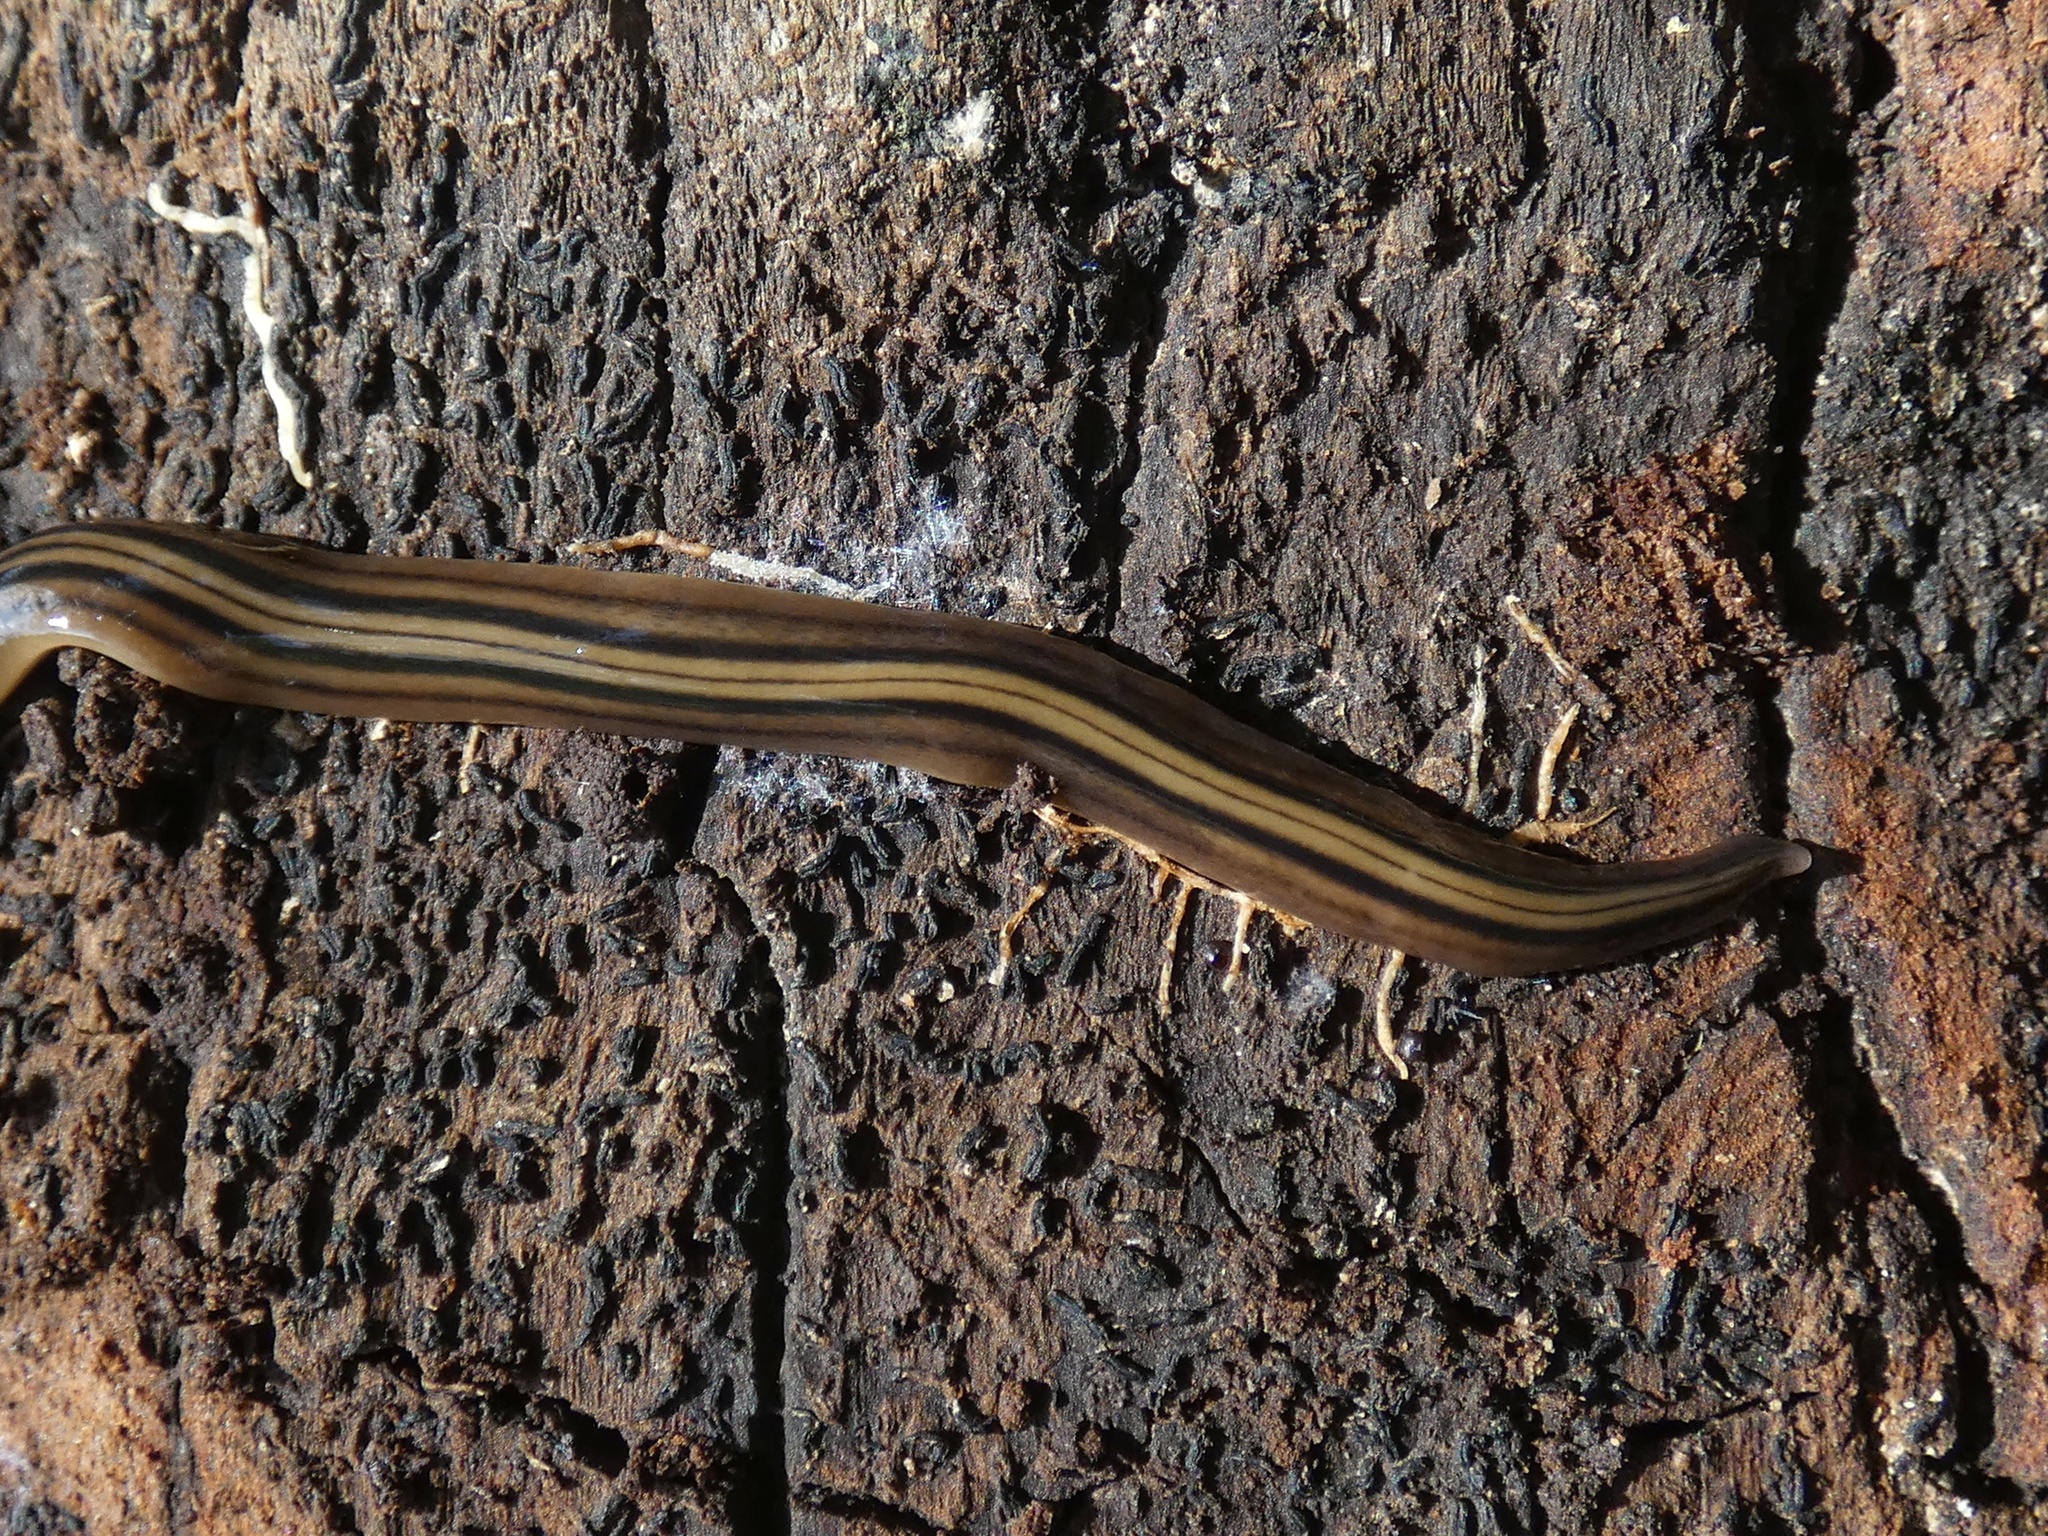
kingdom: Animalia
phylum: Platyhelminthes
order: Tricladida
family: Geoplanidae
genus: Notogynaphallia
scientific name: Notogynaphallia quinquestriata
